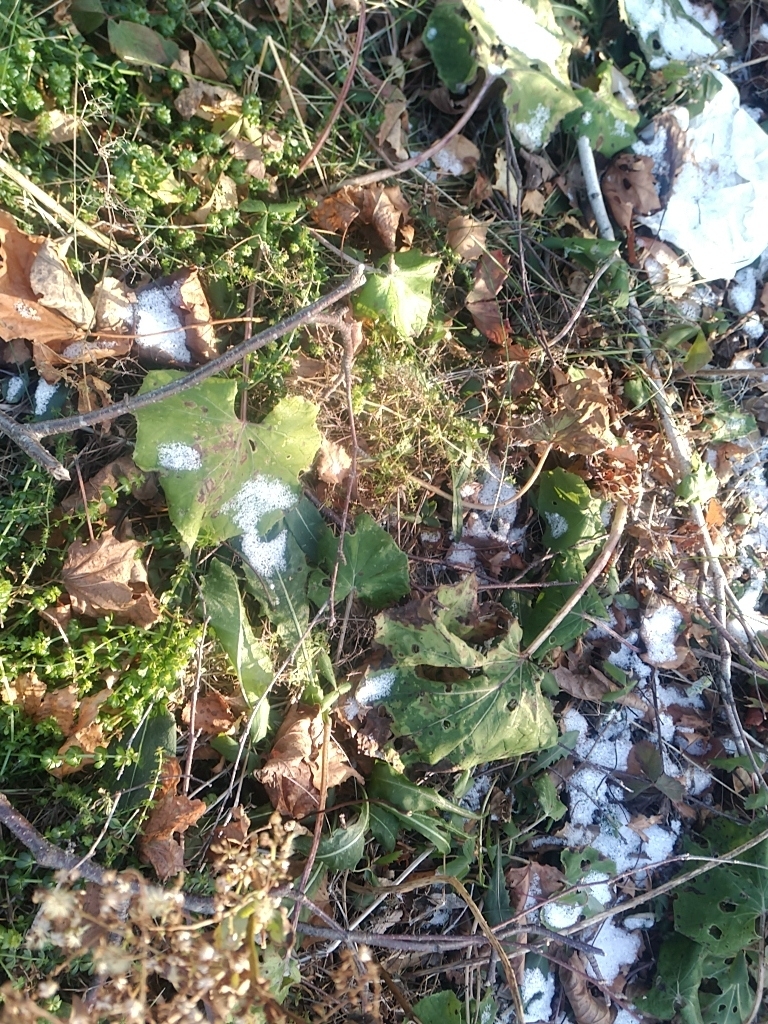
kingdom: Plantae
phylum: Tracheophyta
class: Magnoliopsida
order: Asterales
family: Asteraceae
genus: Tussilago
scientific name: Tussilago farfara
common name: Coltsfoot
